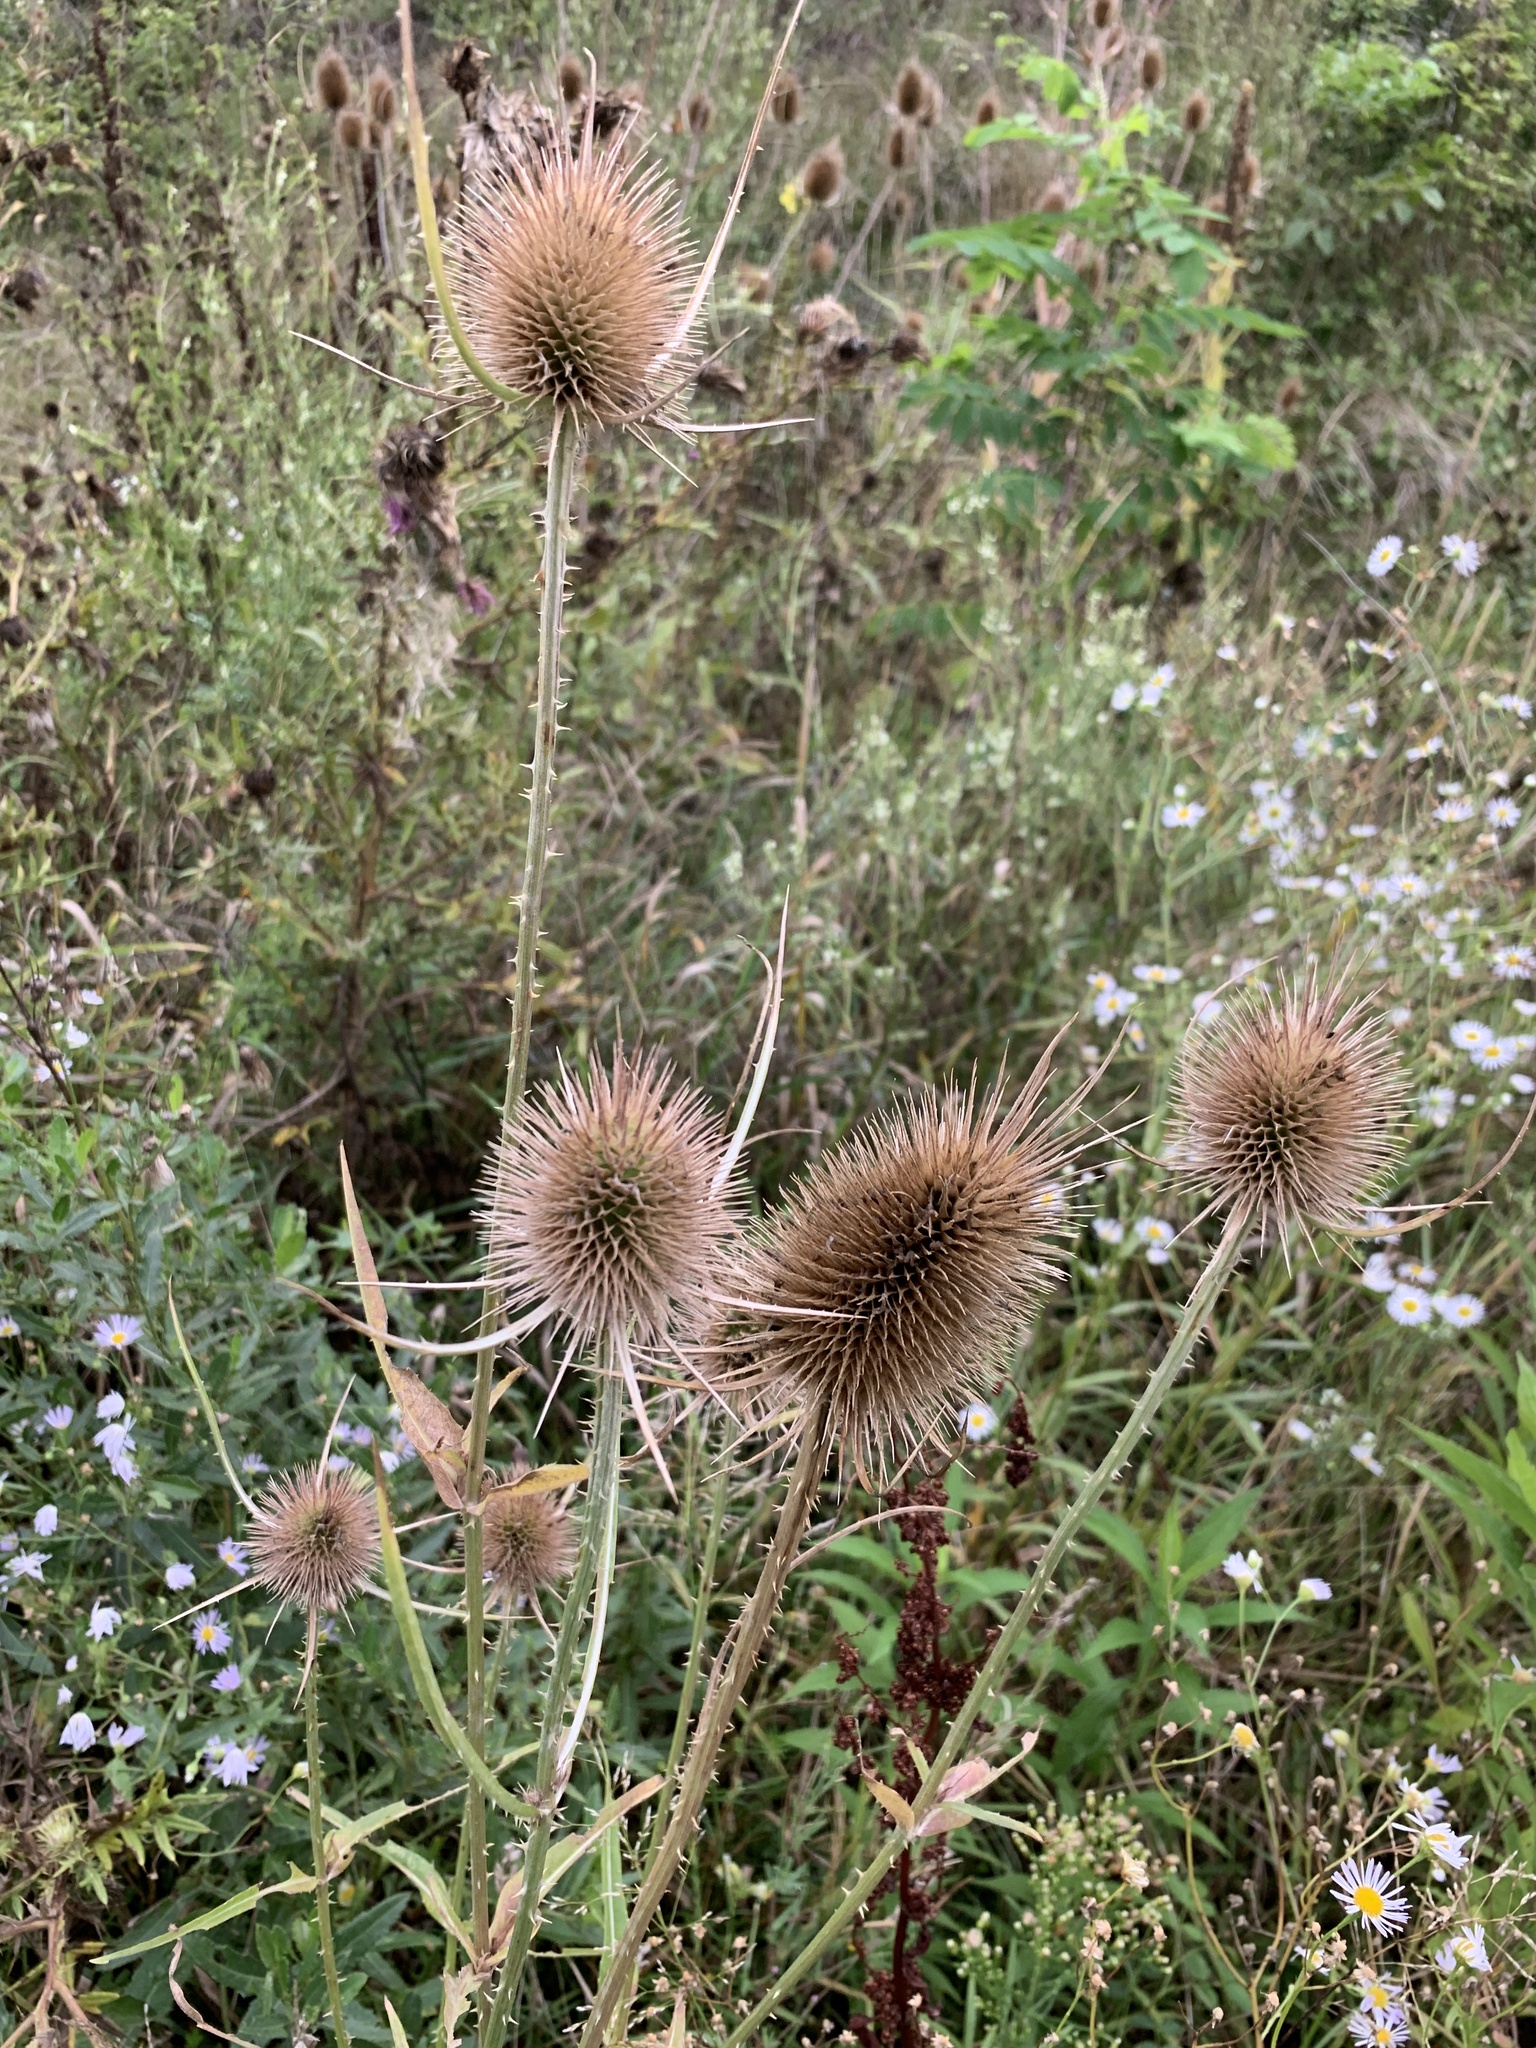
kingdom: Plantae
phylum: Tracheophyta
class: Magnoliopsida
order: Dipsacales
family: Caprifoliaceae
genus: Dipsacus
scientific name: Dipsacus fullonum
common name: Teasel
